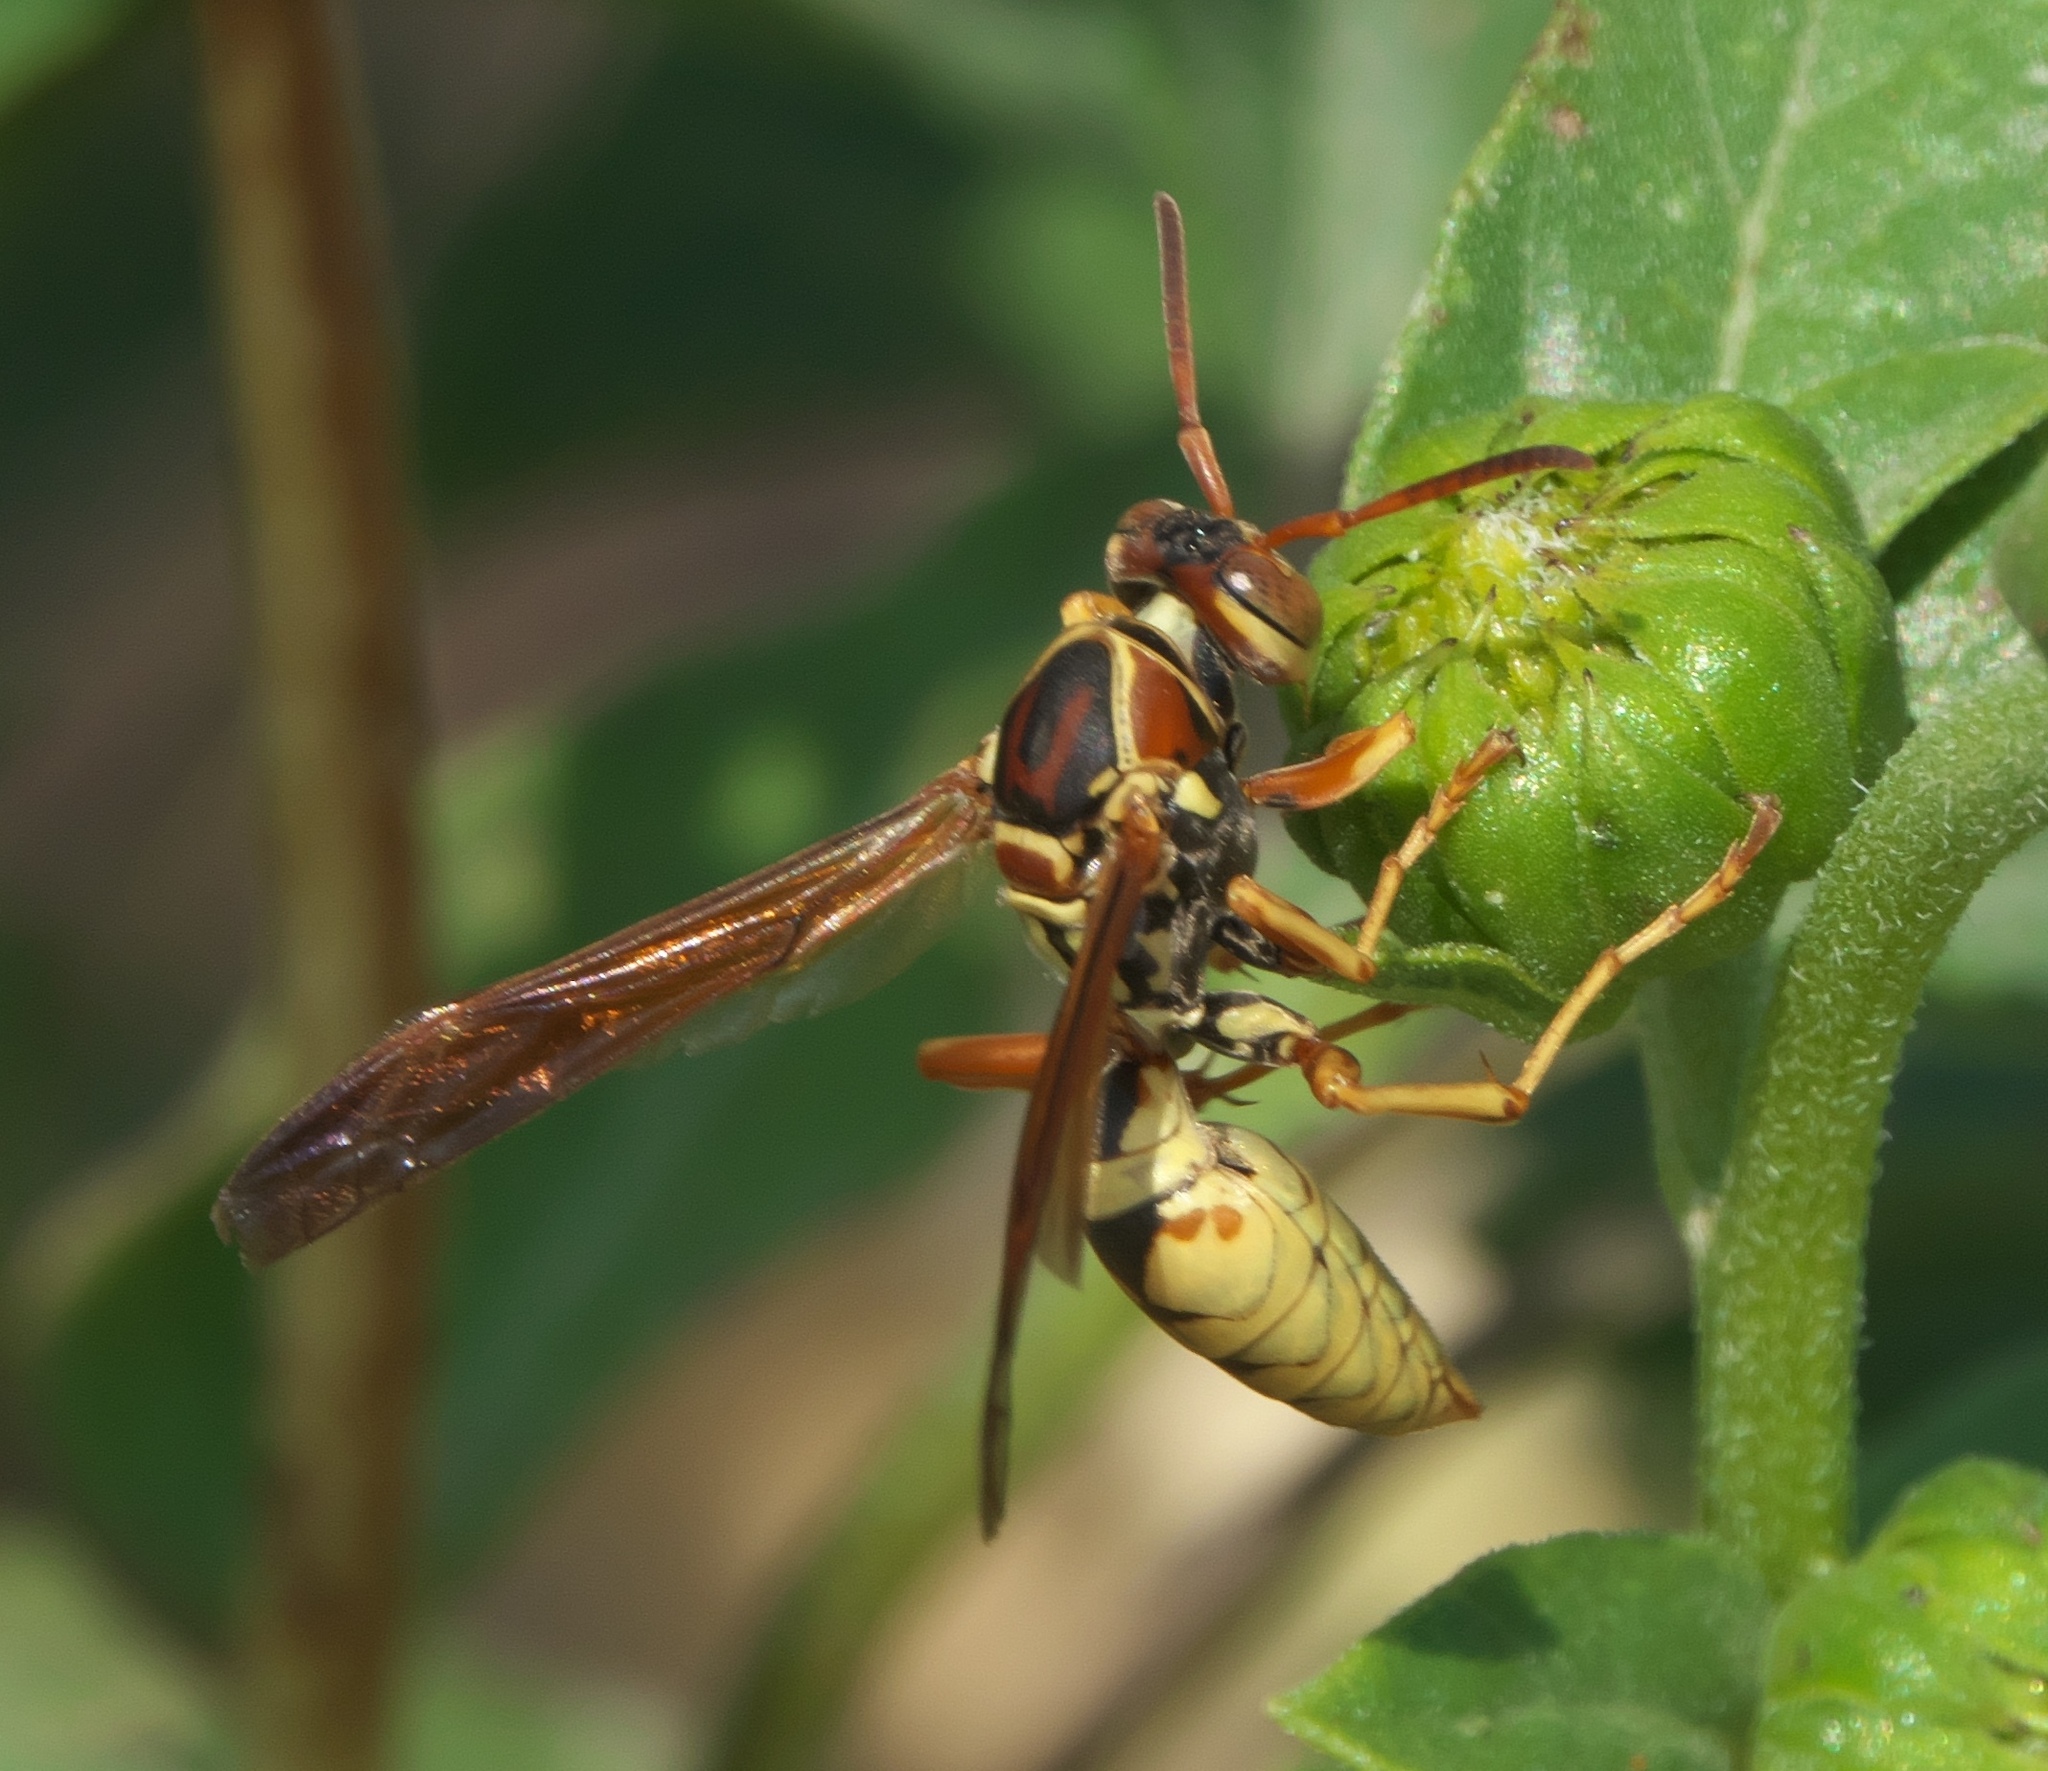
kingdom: Animalia
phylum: Arthropoda
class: Insecta
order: Hymenoptera
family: Eumenidae
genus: Polistes
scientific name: Polistes aurifer
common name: Paper wasp
